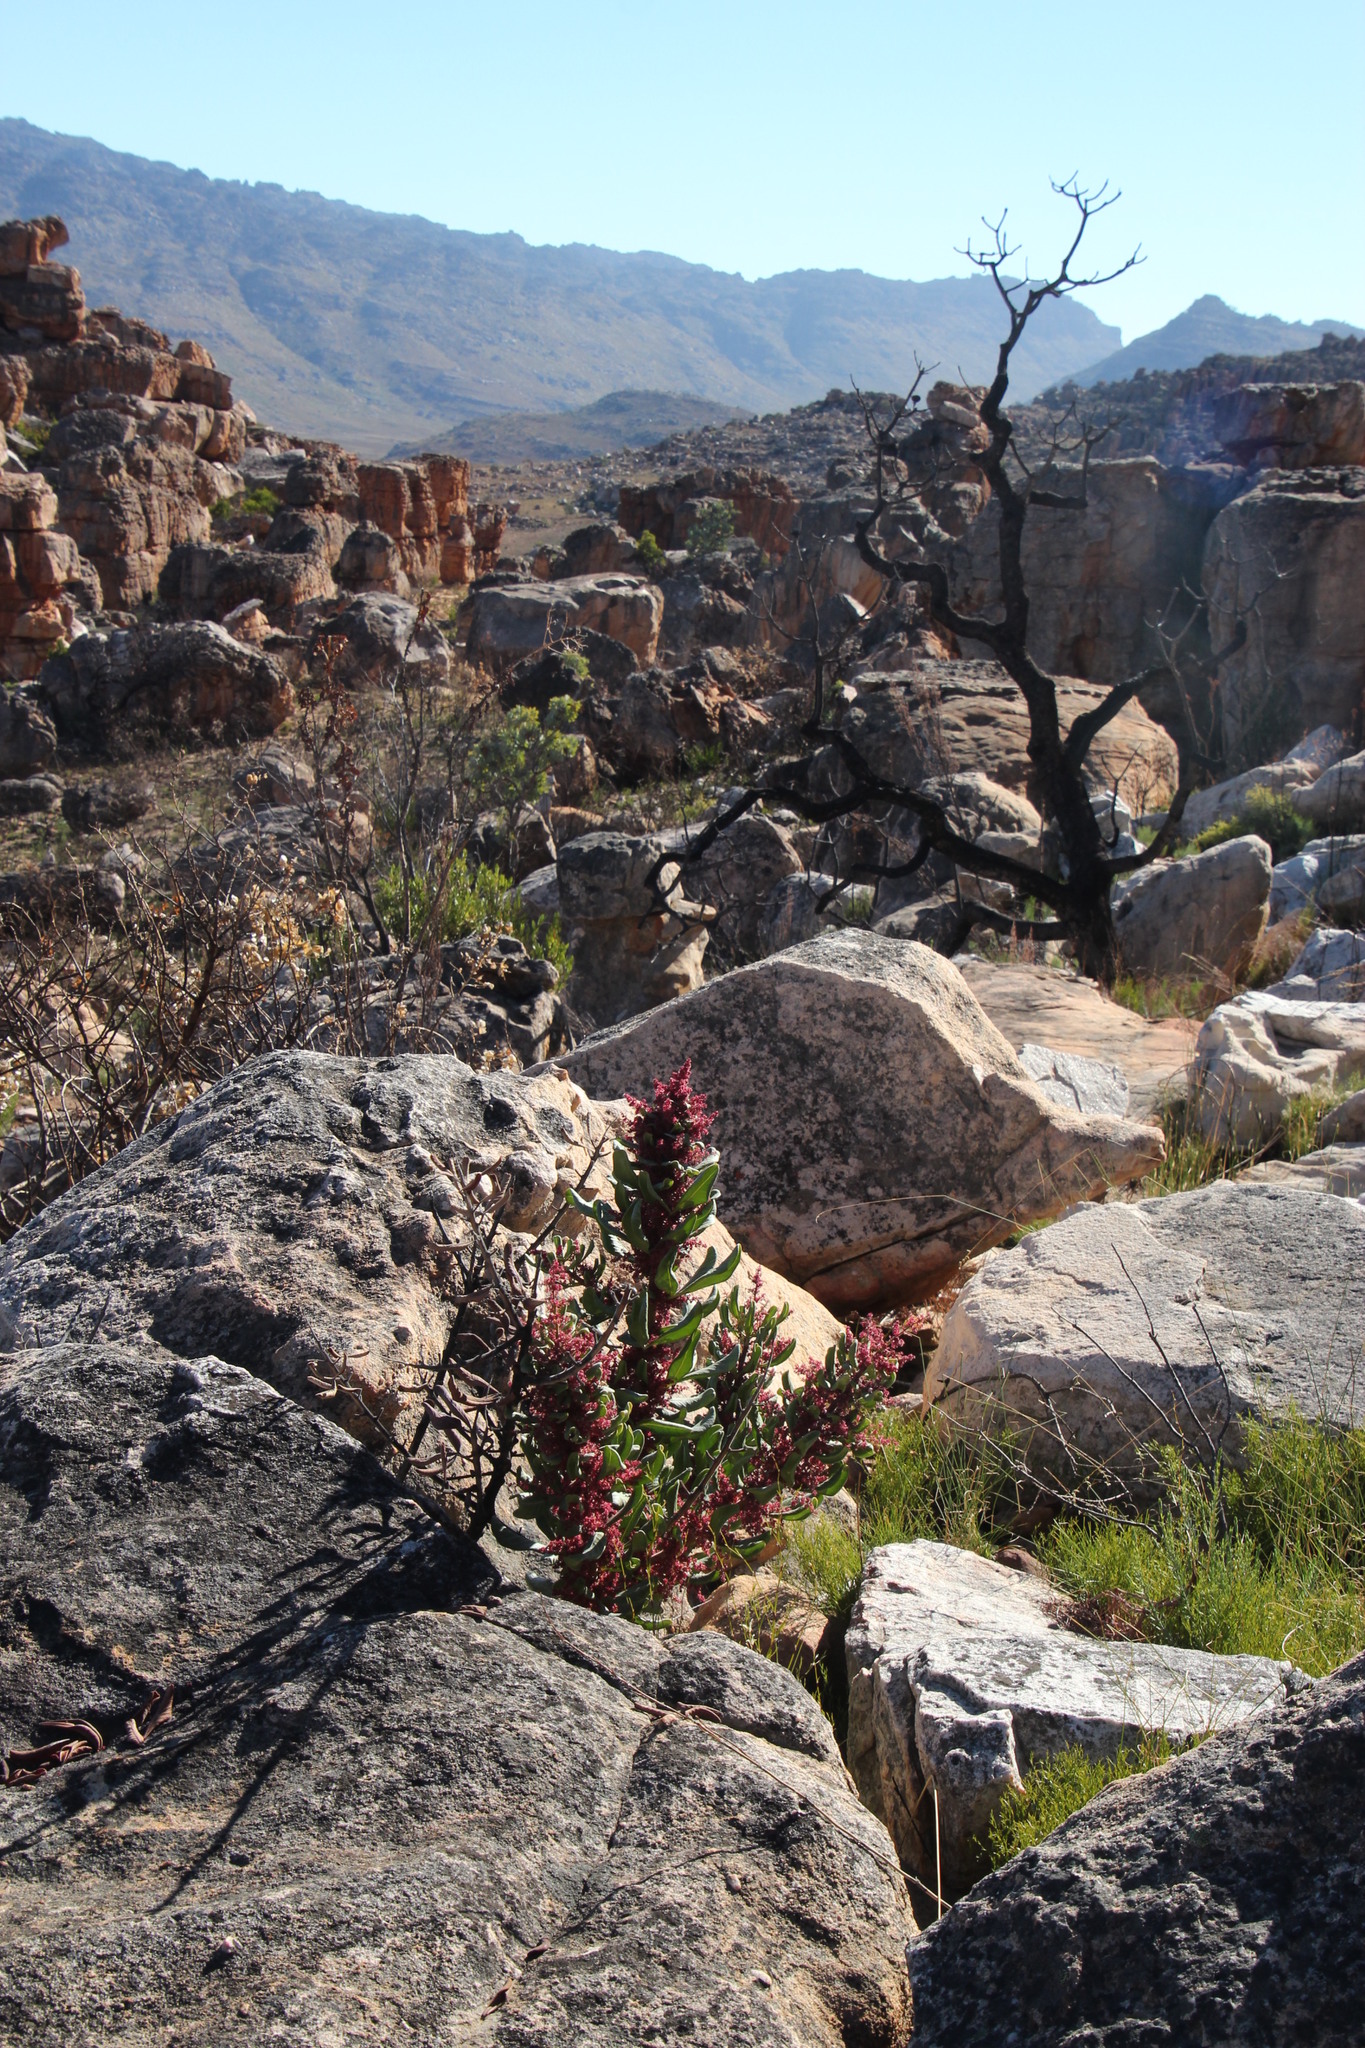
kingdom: Plantae
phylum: Tracheophyta
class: Magnoliopsida
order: Sapindales
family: Anacardiaceae
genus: Searsia
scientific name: Searsia scytophylla
